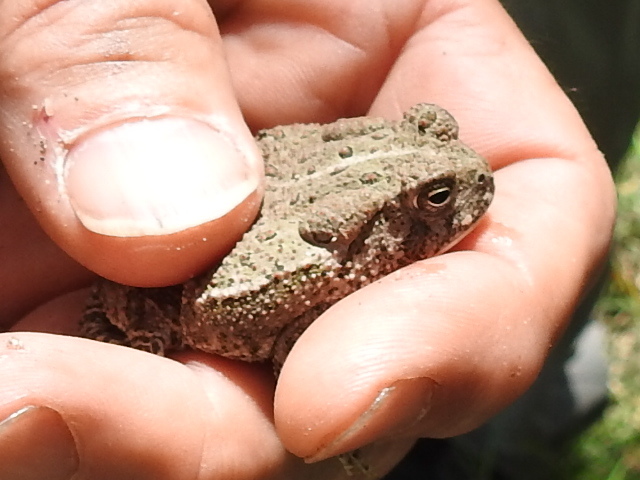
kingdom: Animalia
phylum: Chordata
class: Amphibia
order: Anura
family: Bufonidae
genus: Anaxyrus
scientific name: Anaxyrus woodhousii
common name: Woodhouse's toad
